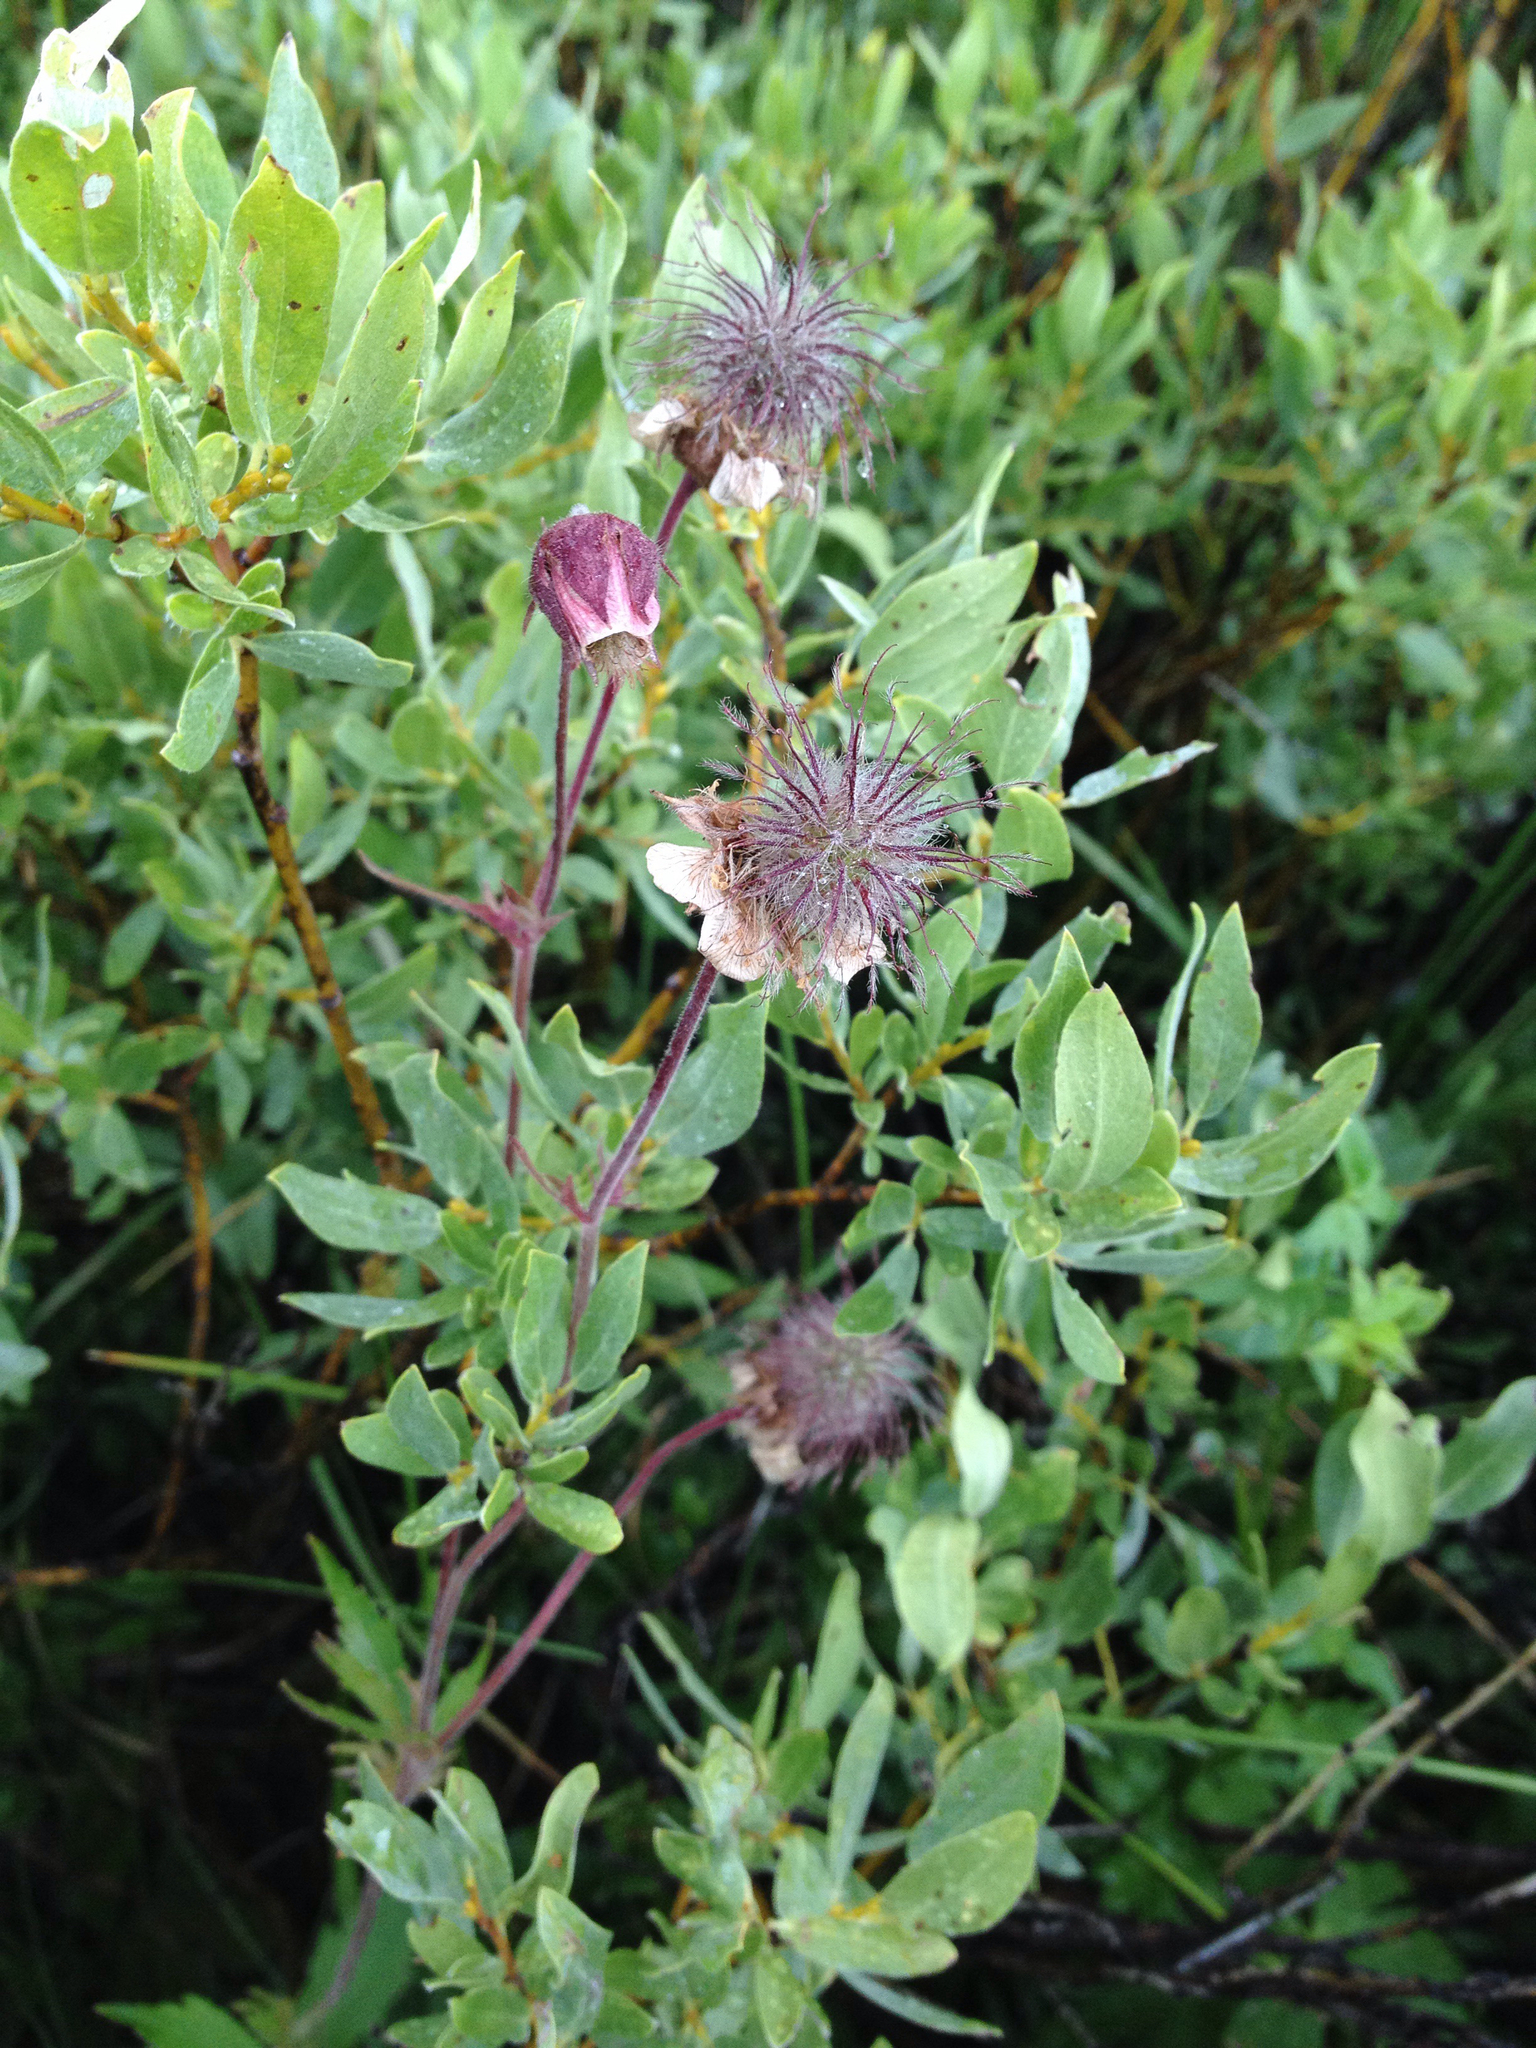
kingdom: Plantae
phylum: Tracheophyta
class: Magnoliopsida
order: Rosales
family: Rosaceae
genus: Geum
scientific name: Geum rivale
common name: Water avens
